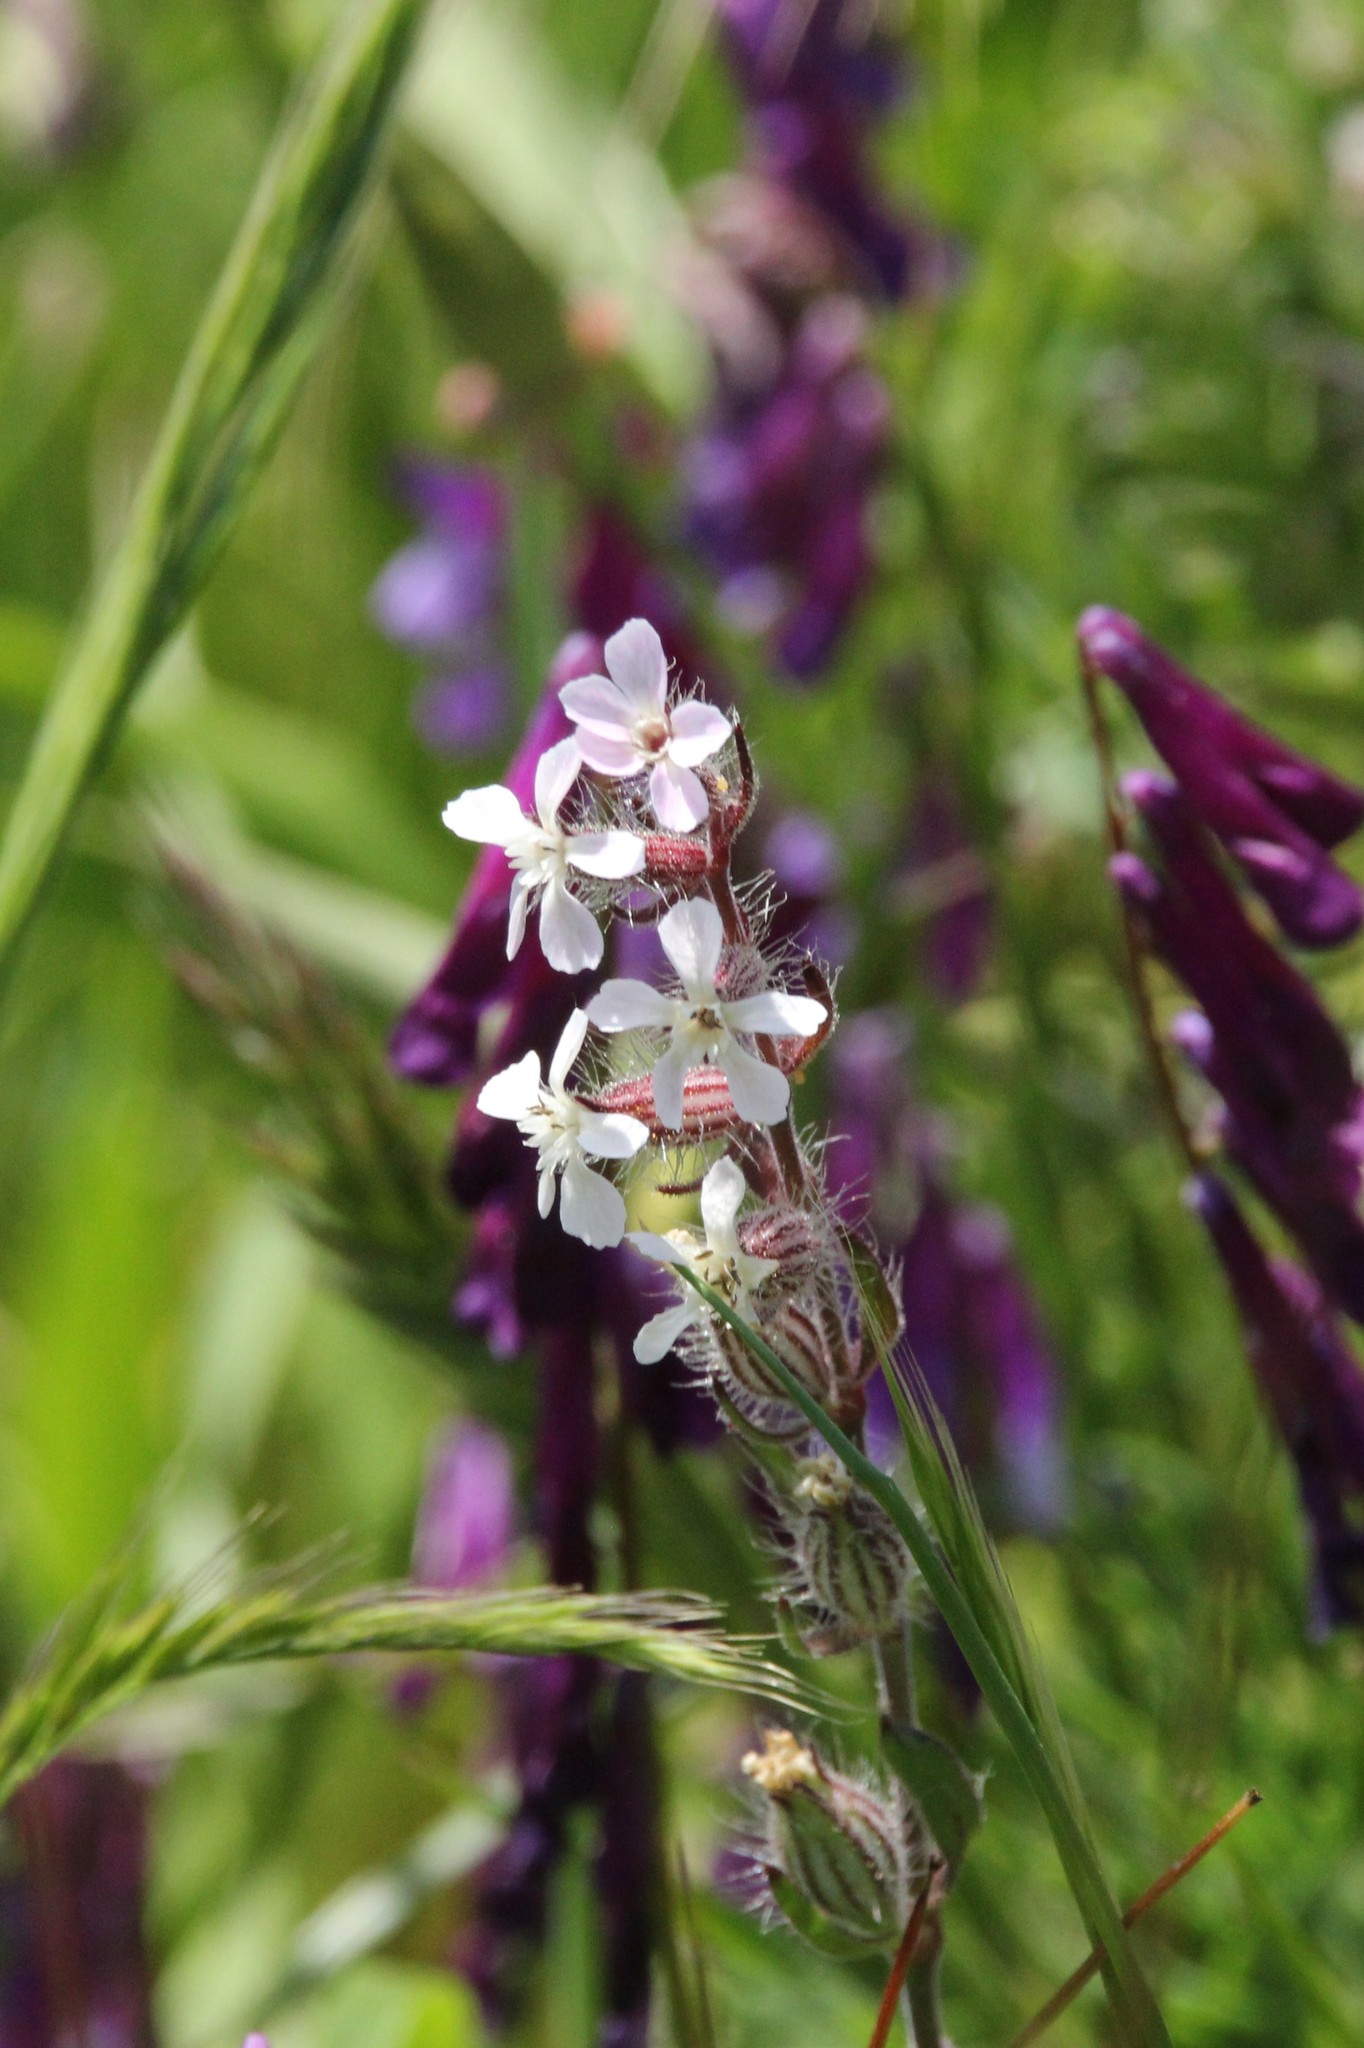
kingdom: Plantae
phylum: Tracheophyta
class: Magnoliopsida
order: Caryophyllales
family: Caryophyllaceae
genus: Silene
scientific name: Silene gallica
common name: Small-flowered catchfly
